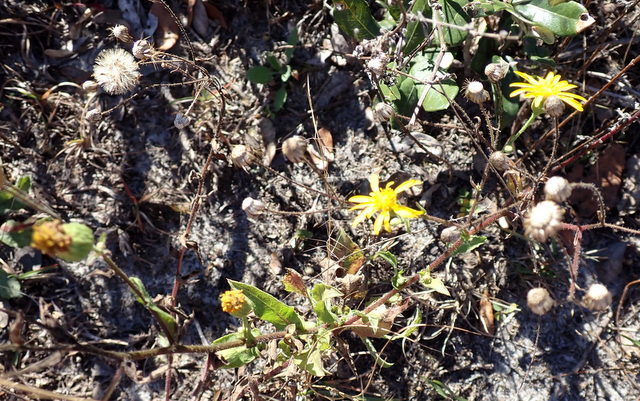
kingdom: Plantae
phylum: Tracheophyta
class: Magnoliopsida
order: Asterales
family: Asteraceae
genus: Heterotheca
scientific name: Heterotheca subaxillaris
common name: Camphorweed
